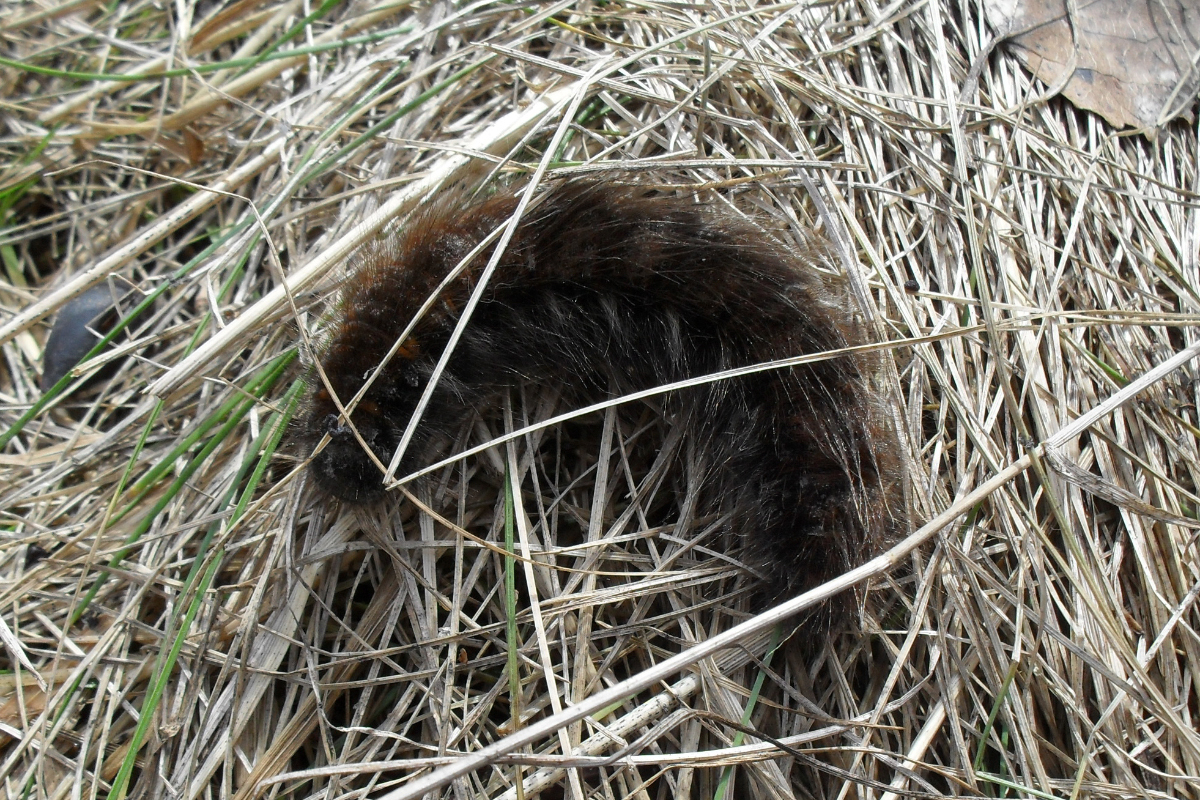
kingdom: Animalia
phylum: Arthropoda
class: Insecta
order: Lepidoptera
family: Lasiocampidae
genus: Macrothylacia
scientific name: Macrothylacia rubi
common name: Fox moth
